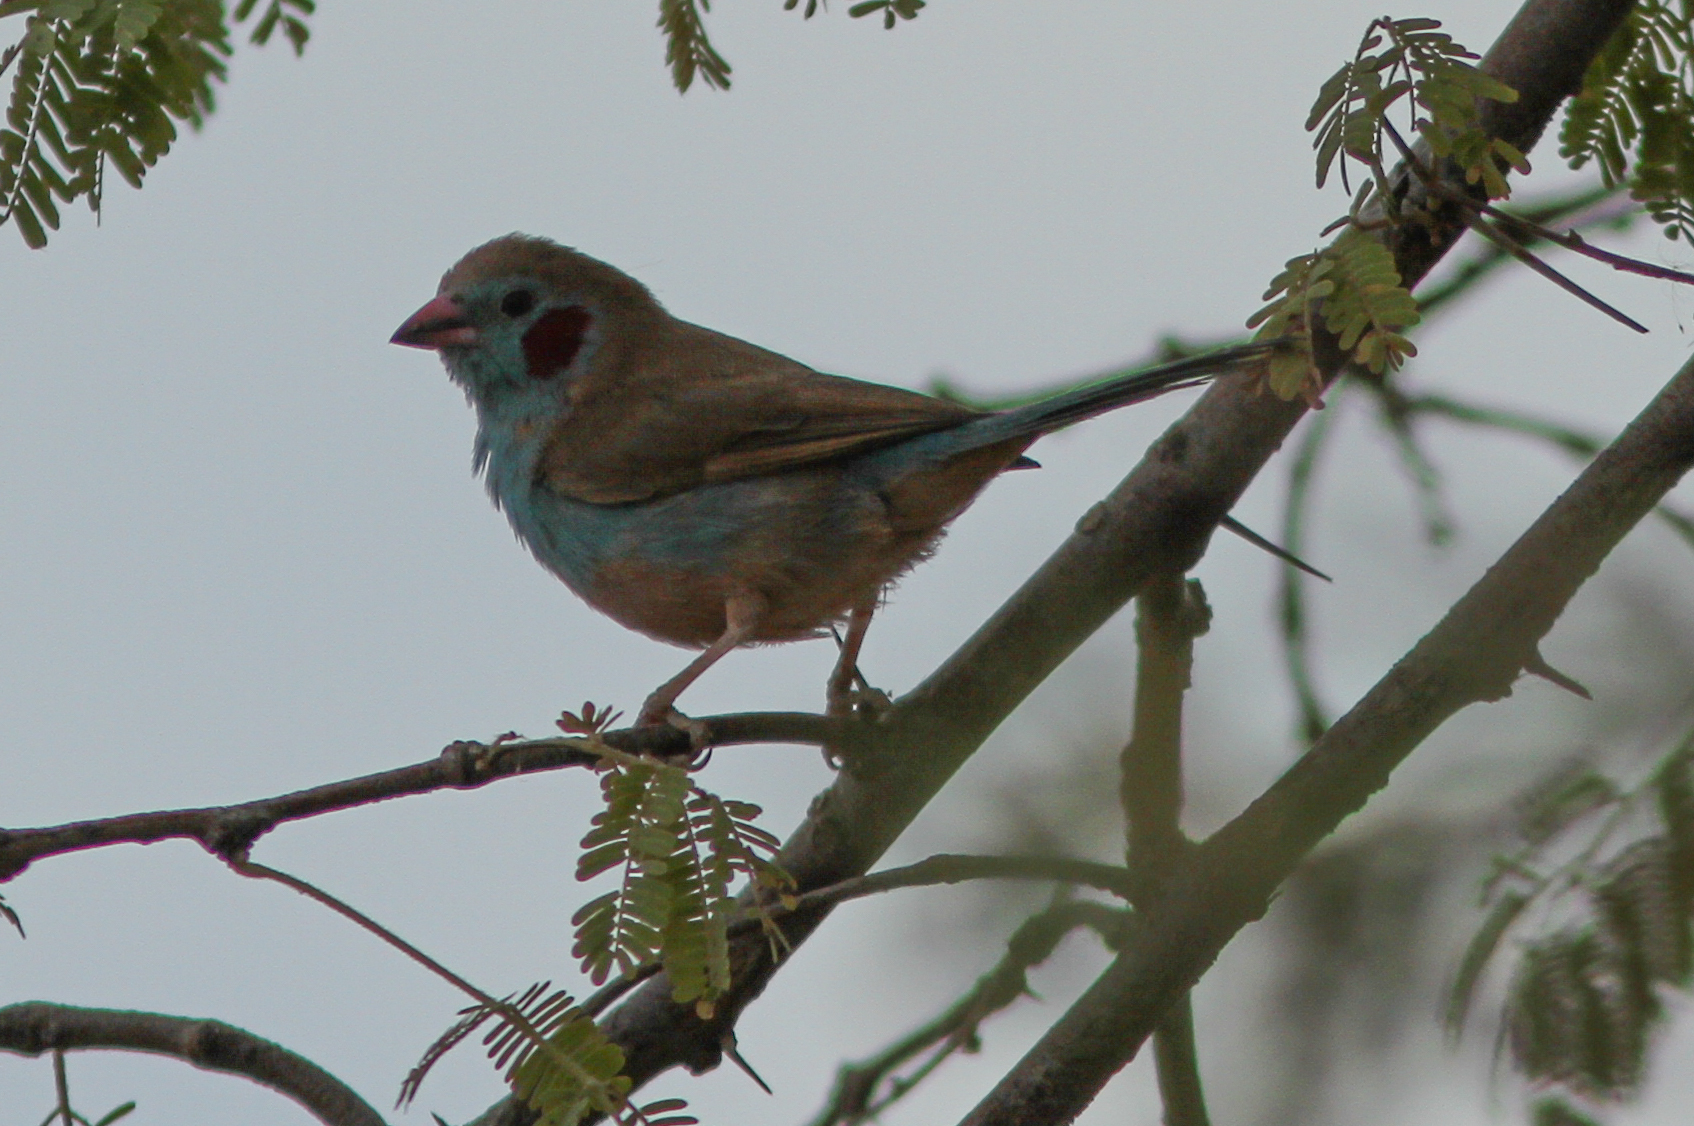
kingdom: Animalia
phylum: Chordata
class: Aves
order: Passeriformes
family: Estrildidae
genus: Uraeginthus
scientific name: Uraeginthus bengalus
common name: Red-cheeked cordon-bleu
